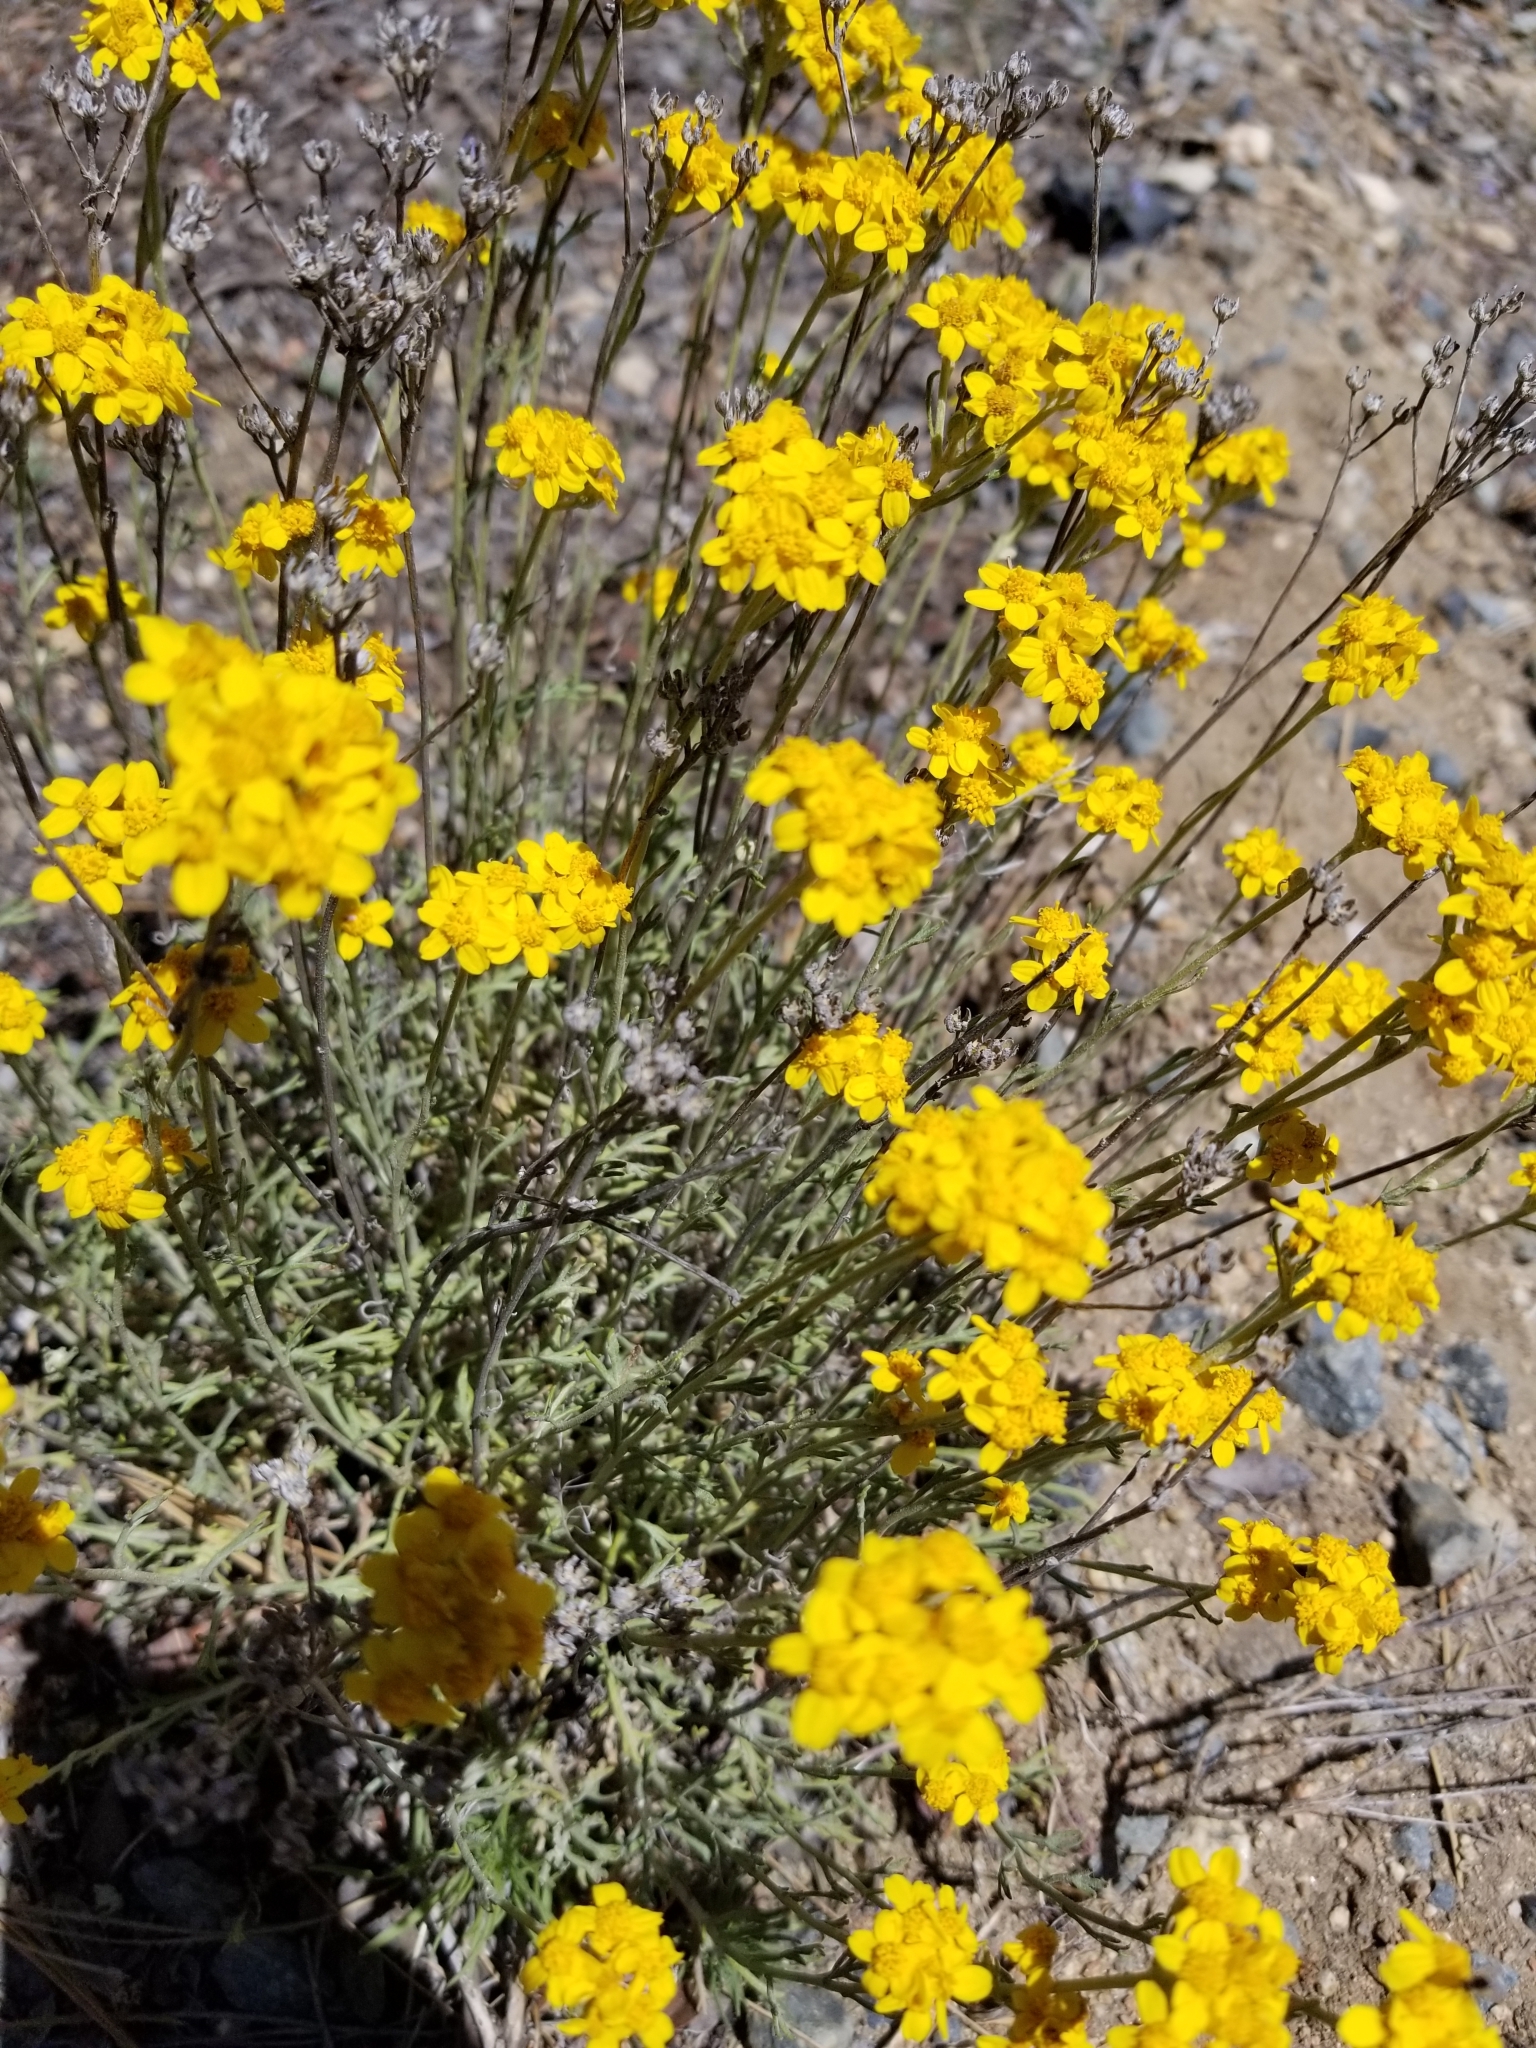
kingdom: Plantae
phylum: Tracheophyta
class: Magnoliopsida
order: Asterales
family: Asteraceae
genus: Eriophyllum
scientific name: Eriophyllum confertiflorum
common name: Golden-yarrow
